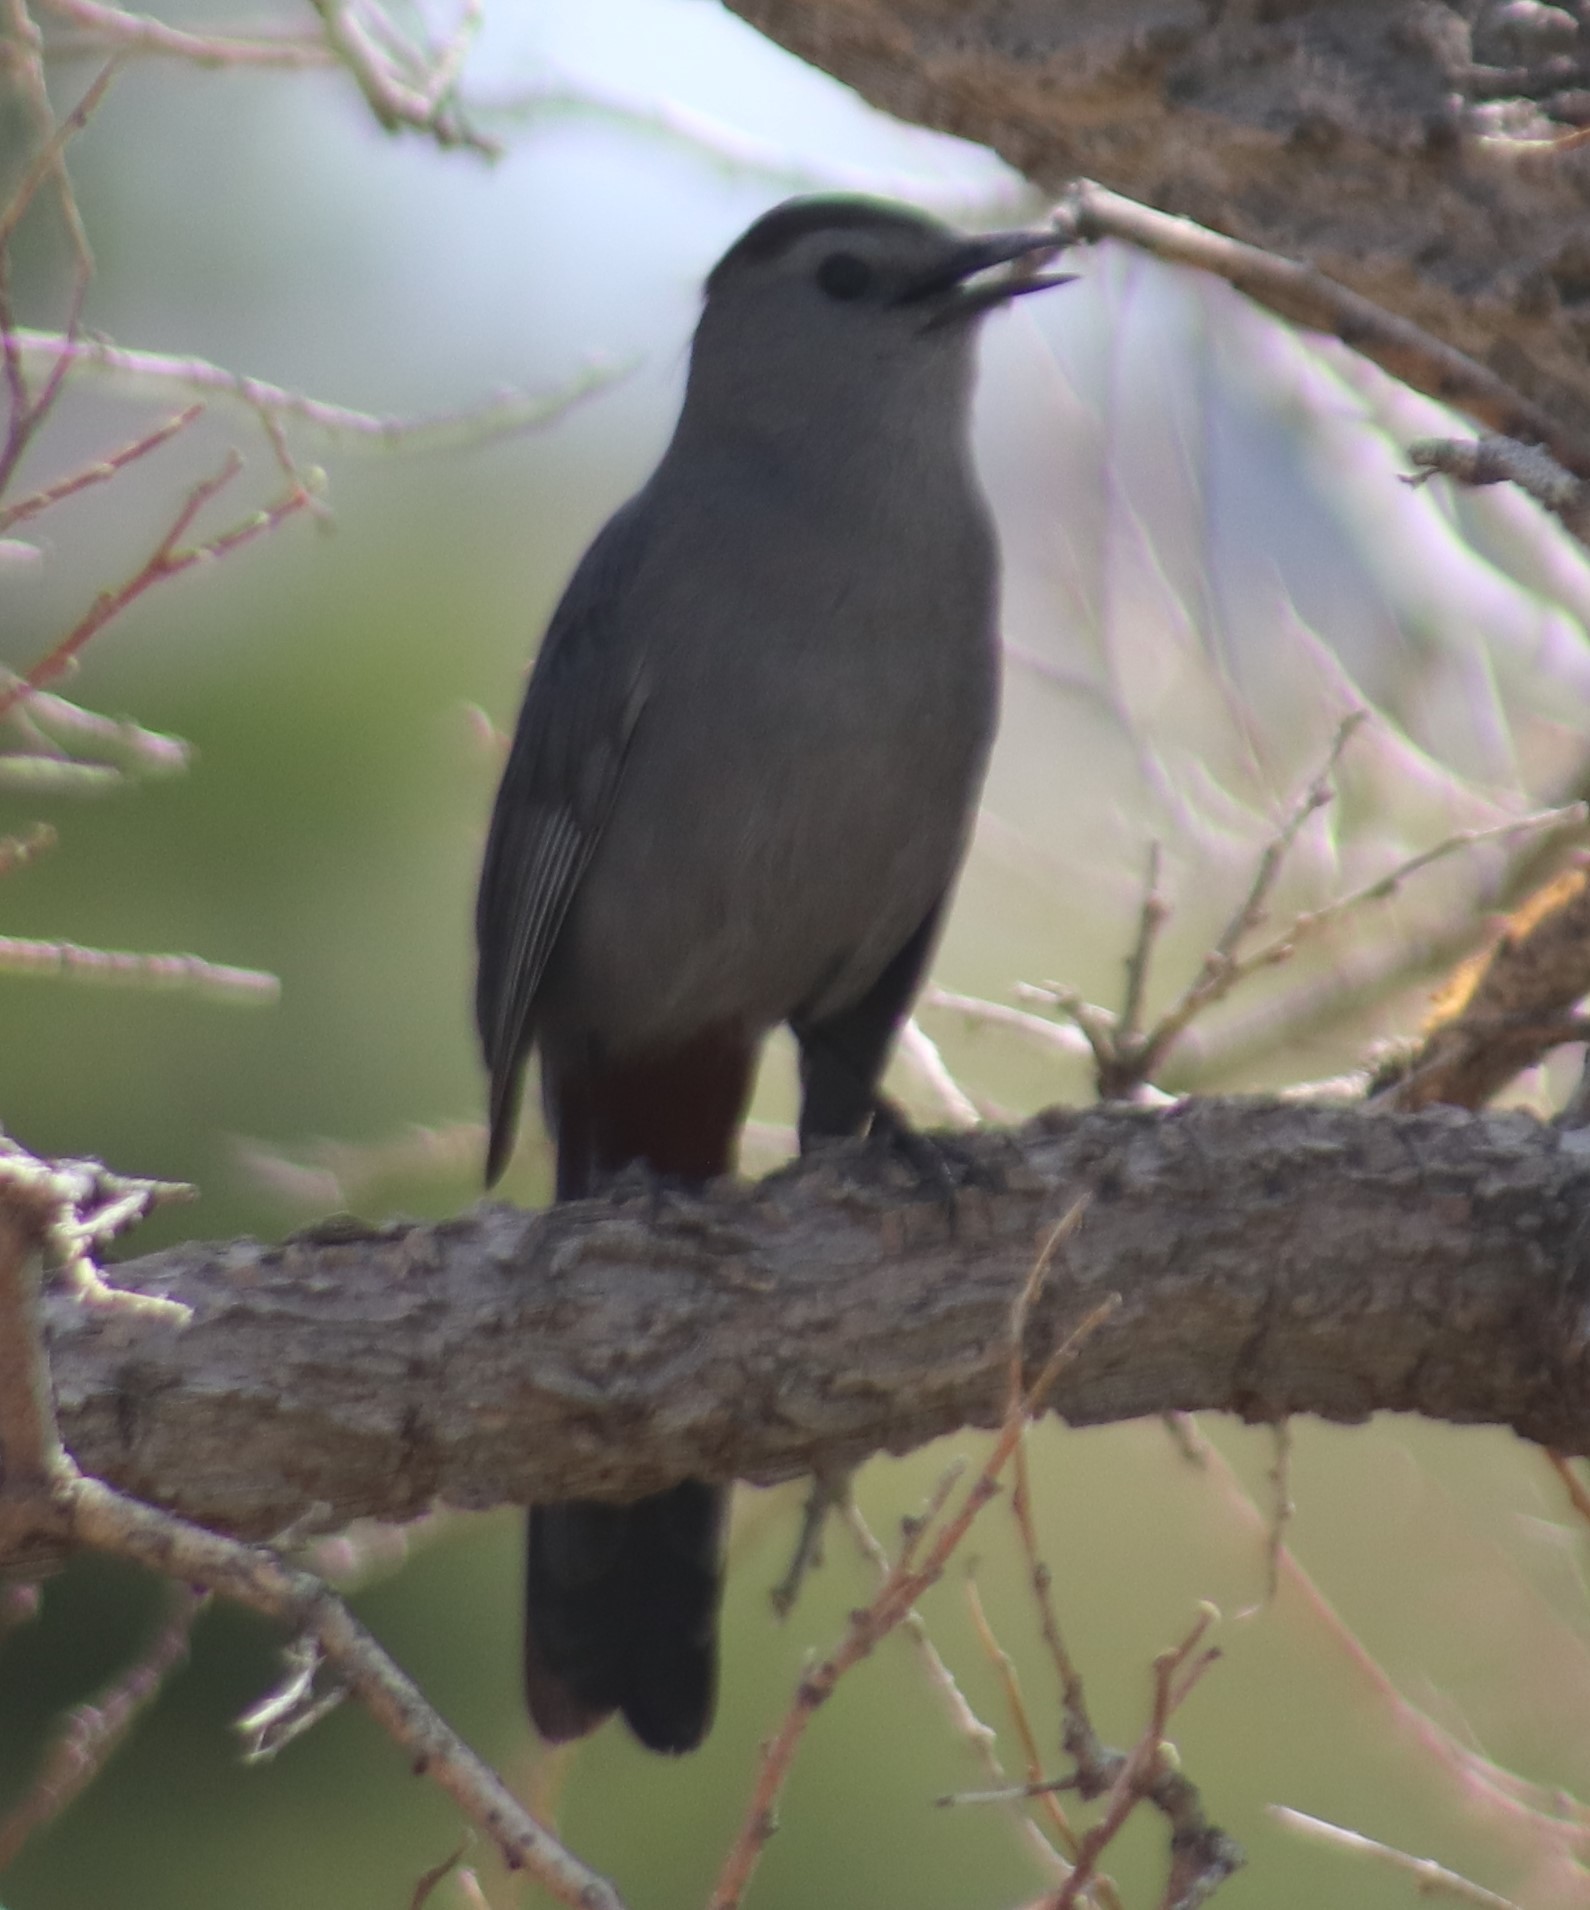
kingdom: Animalia
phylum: Chordata
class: Aves
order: Passeriformes
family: Mimidae
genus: Dumetella
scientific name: Dumetella carolinensis
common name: Gray catbird
